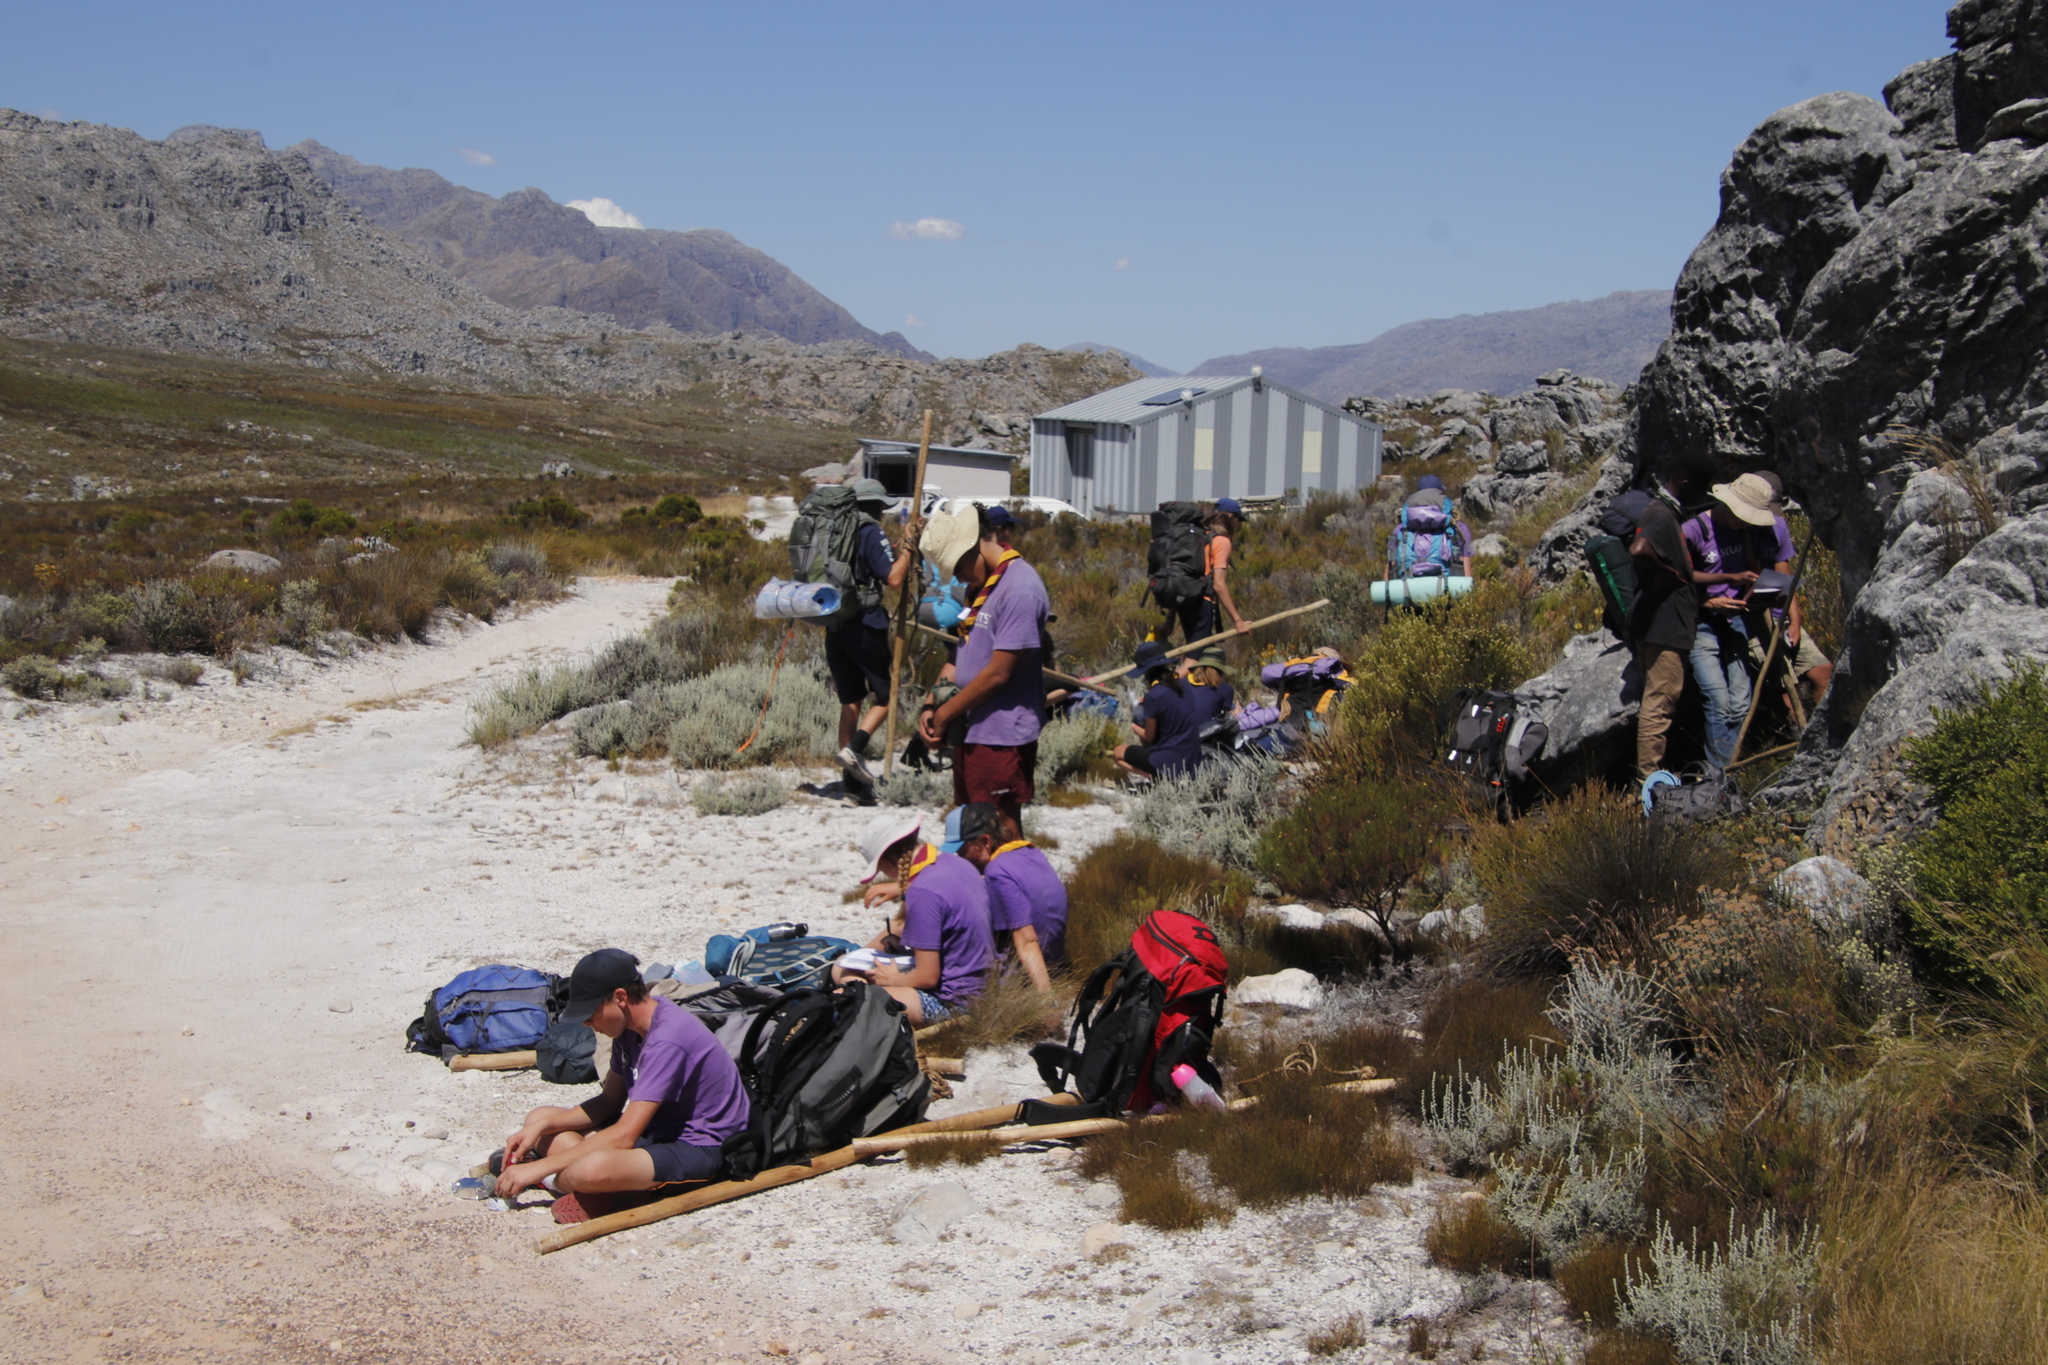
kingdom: Plantae
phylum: Tracheophyta
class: Magnoliopsida
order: Asterales
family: Asteraceae
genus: Seriphium
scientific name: Seriphium plumosum
